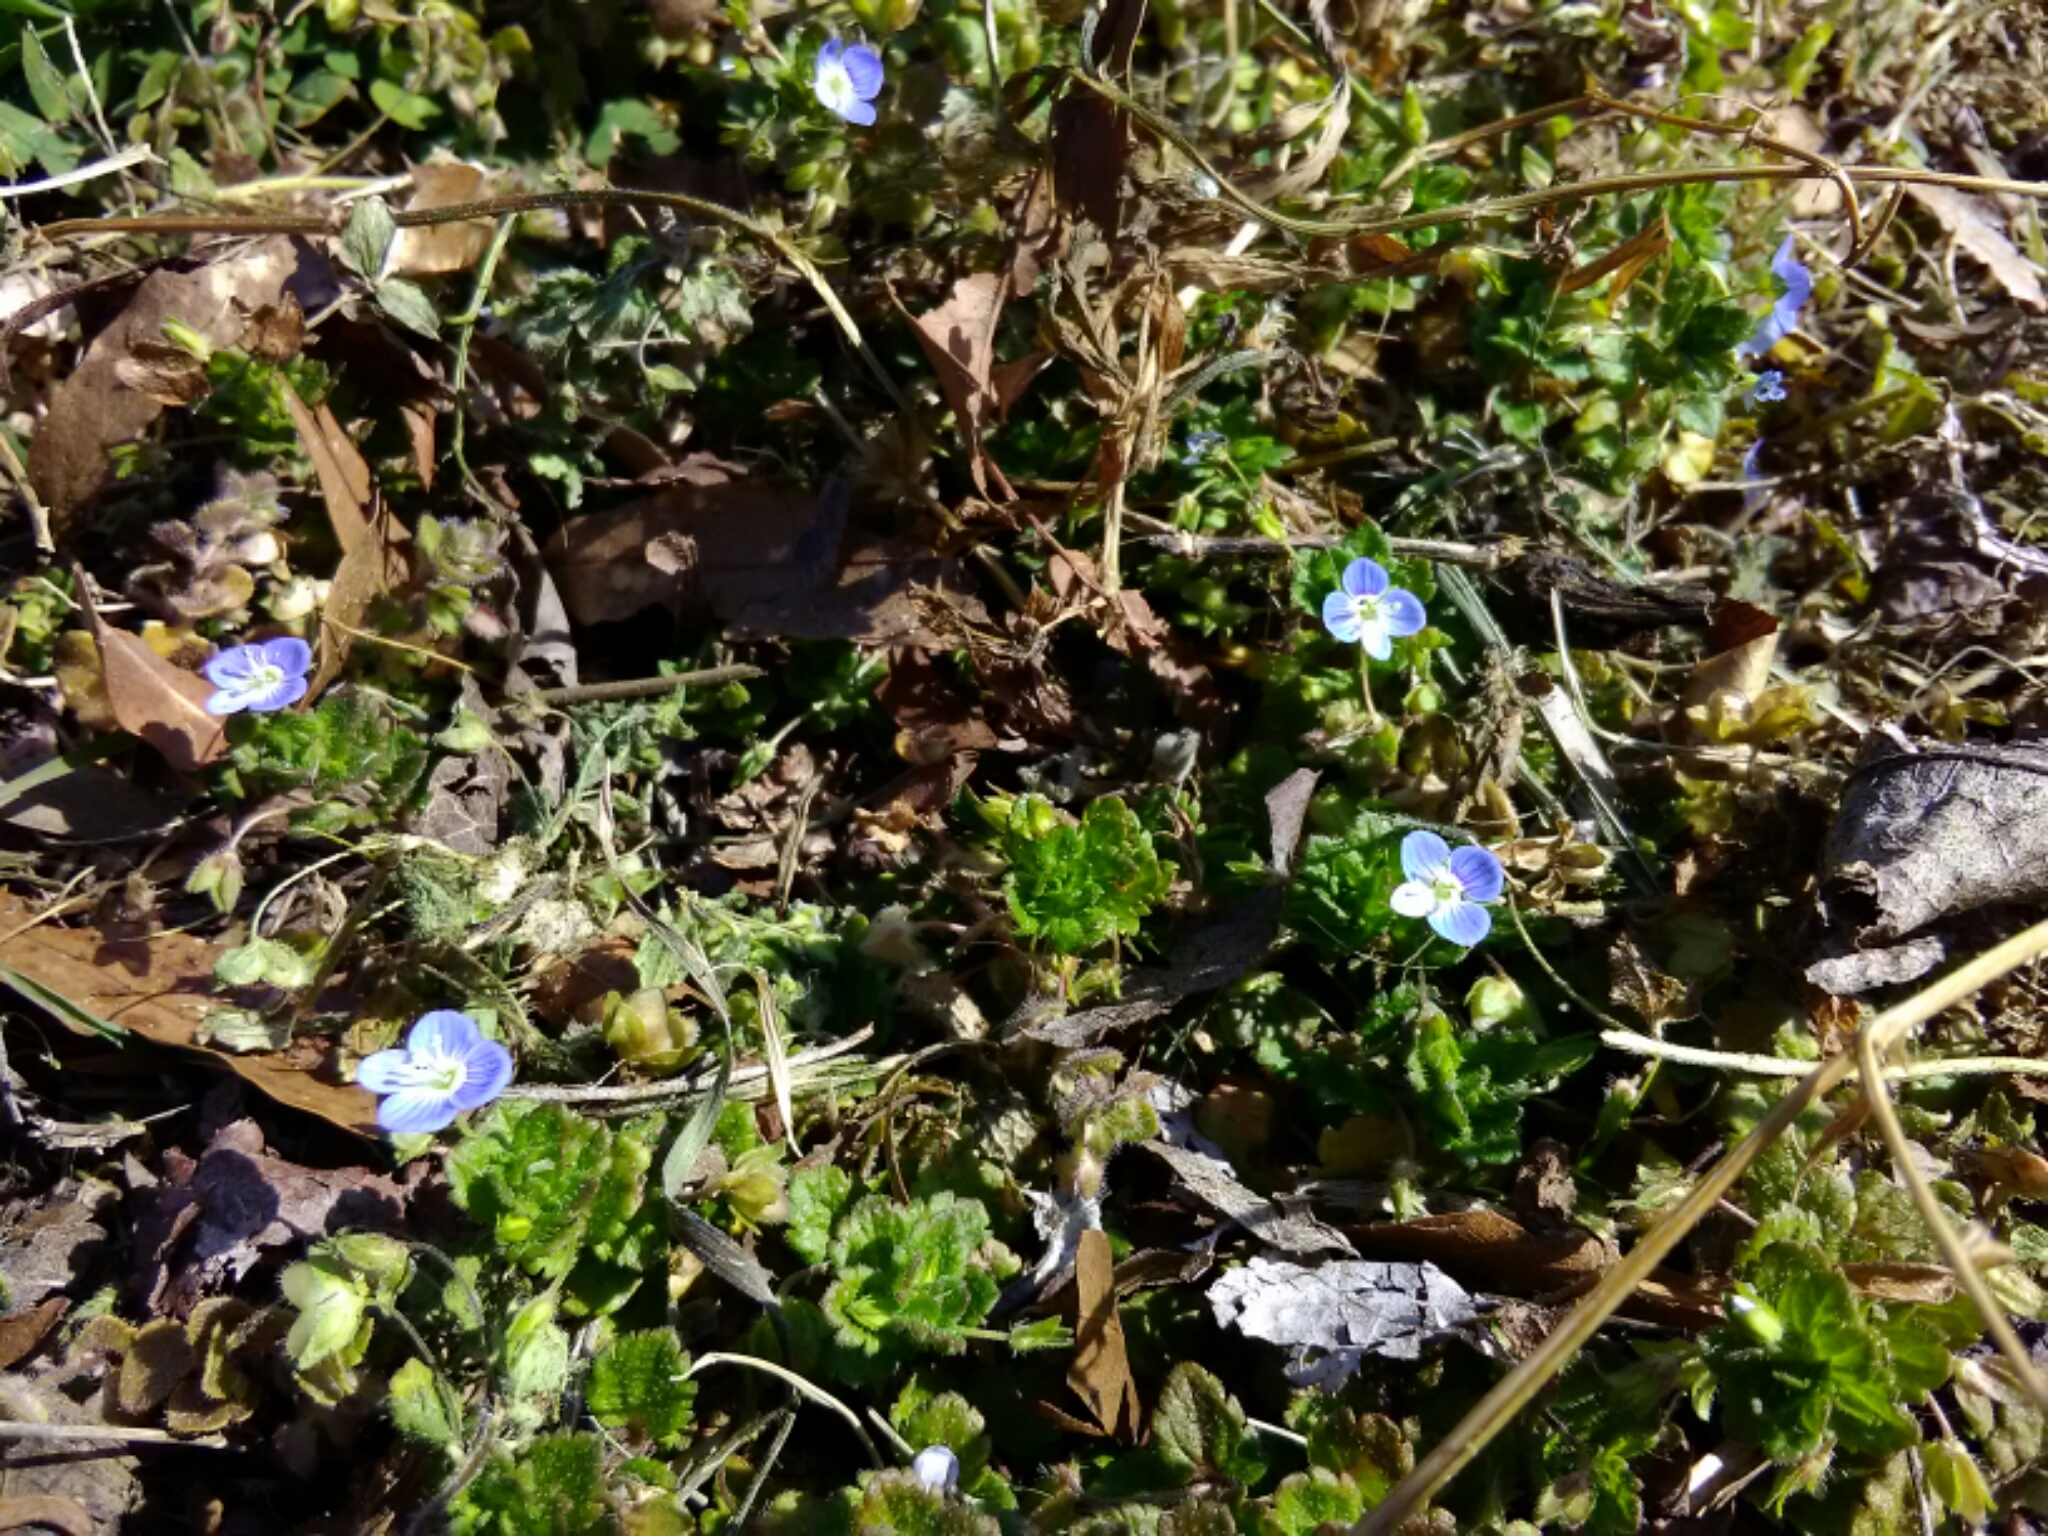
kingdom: Plantae
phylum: Tracheophyta
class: Magnoliopsida
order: Lamiales
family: Plantaginaceae
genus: Veronica
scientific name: Veronica persica
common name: Common field-speedwell
